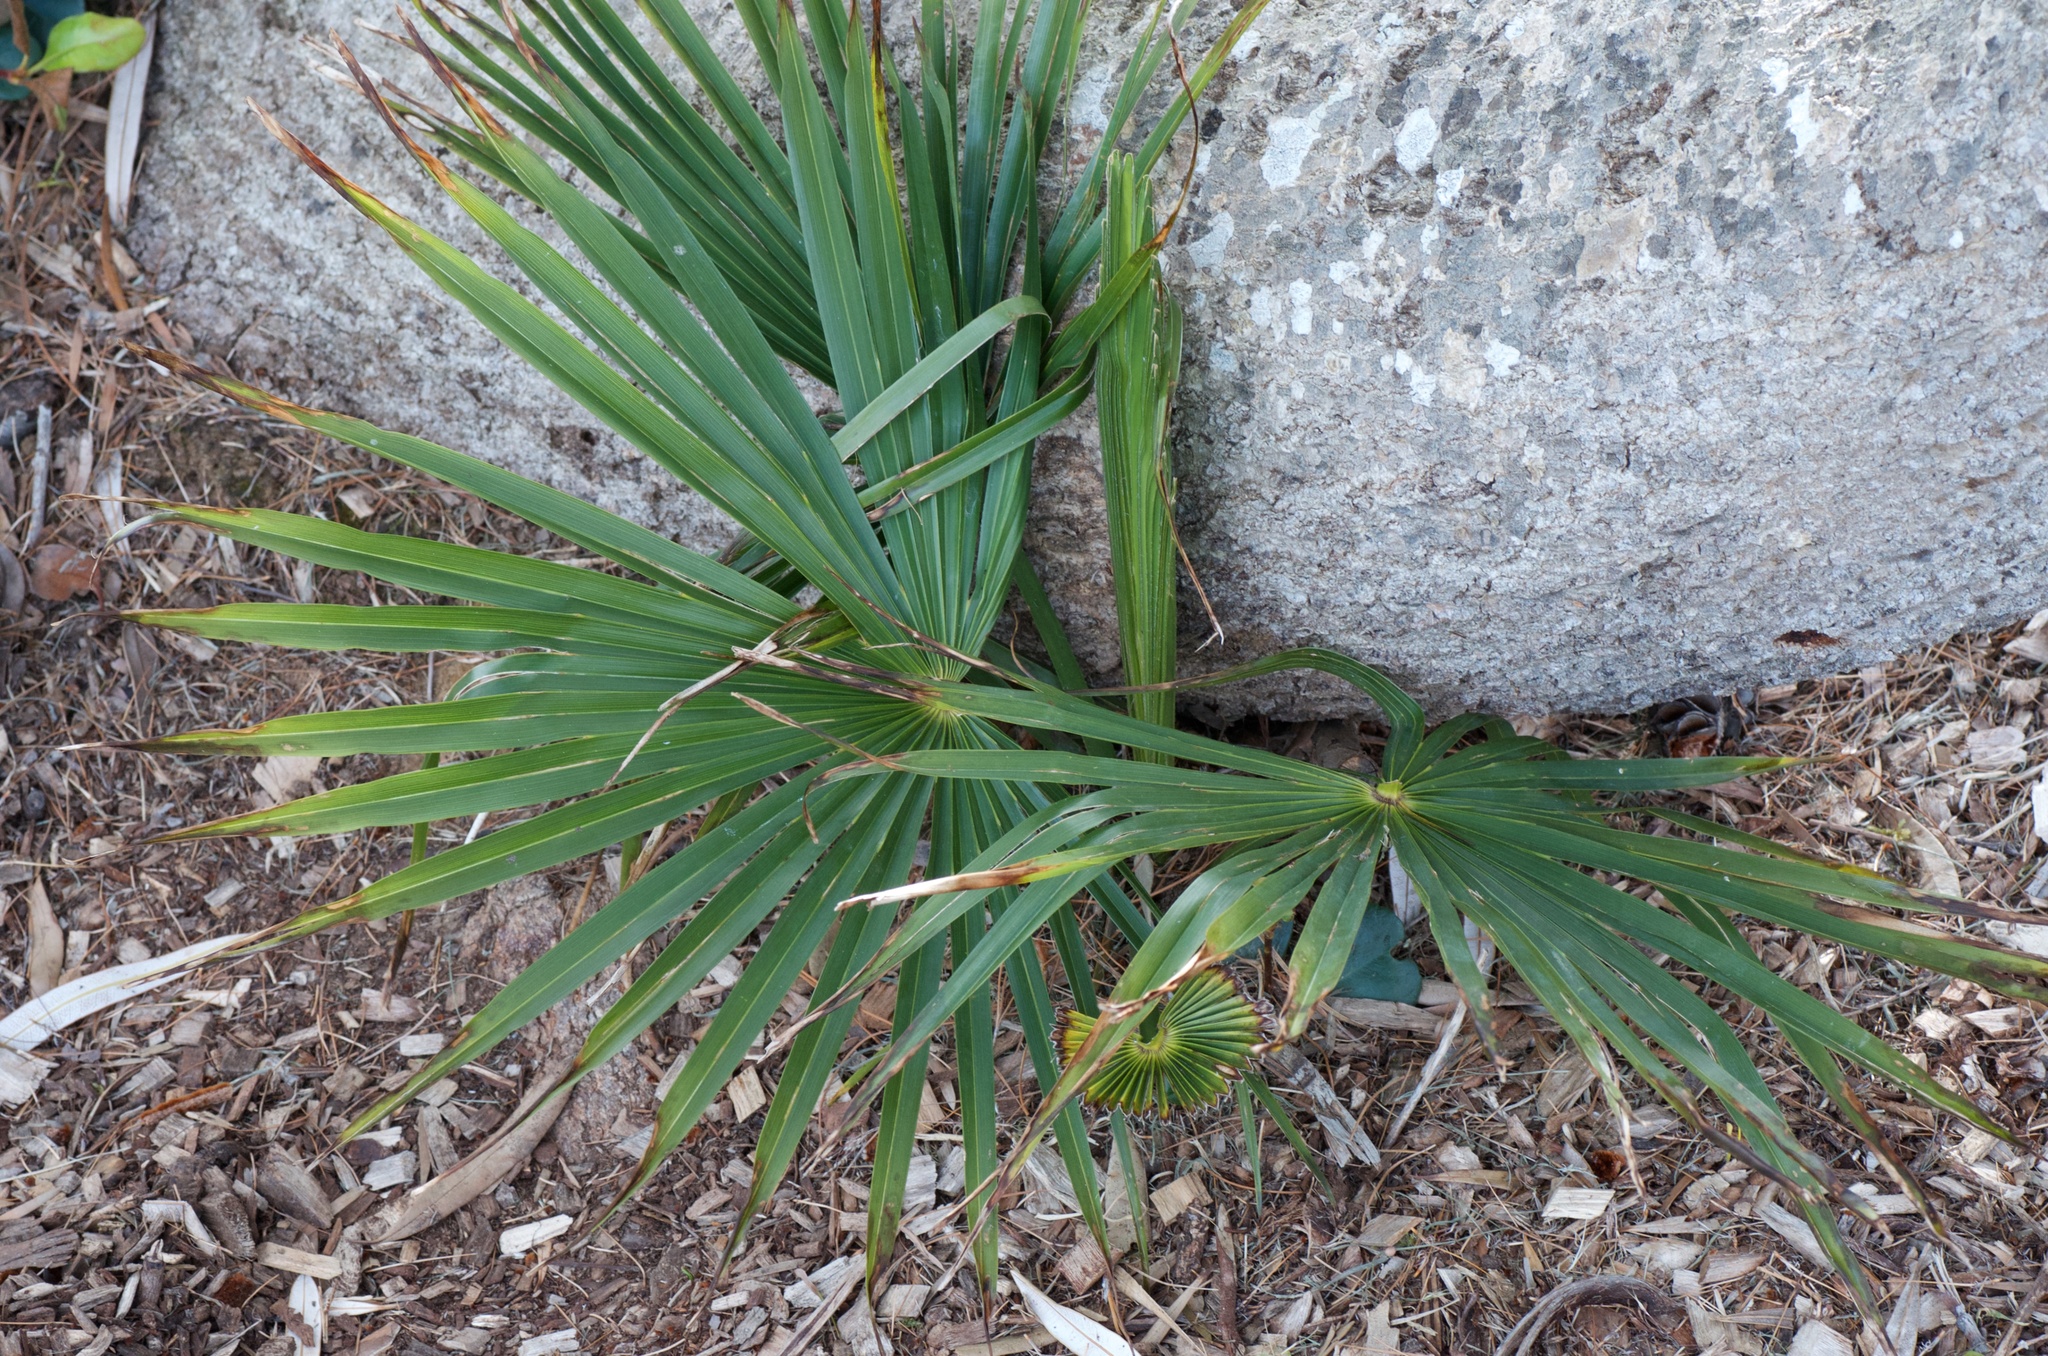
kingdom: Plantae
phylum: Tracheophyta
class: Liliopsida
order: Arecales
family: Arecaceae
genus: Trachycarpus
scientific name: Trachycarpus fortunei
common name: Chusan palm
